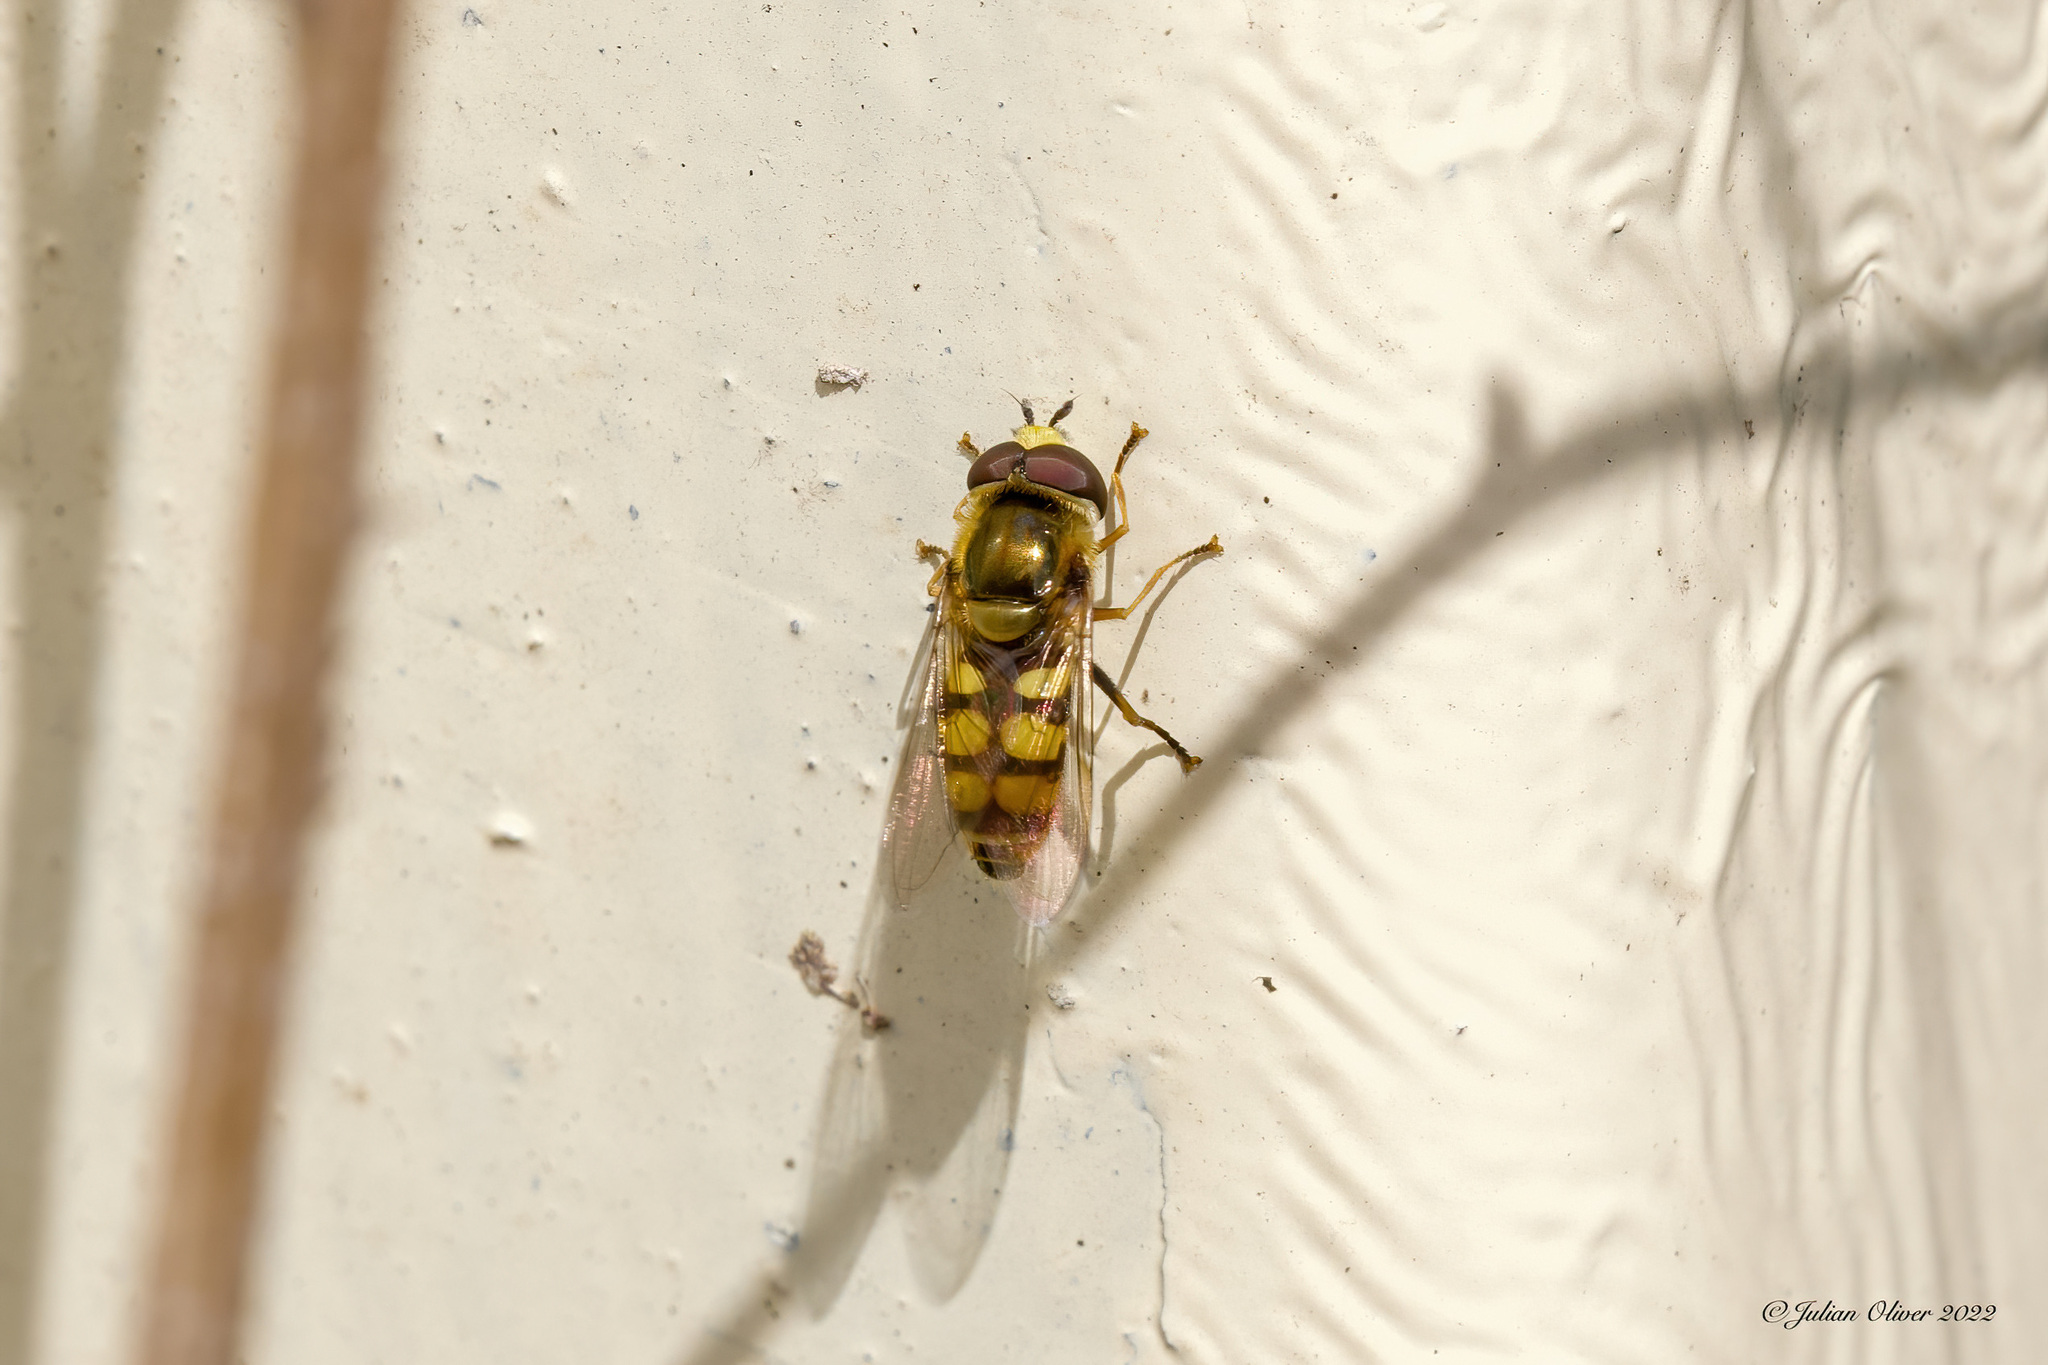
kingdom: Animalia
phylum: Arthropoda
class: Insecta
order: Diptera
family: Syrphidae
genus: Eupeodes
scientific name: Eupeodes corollae
